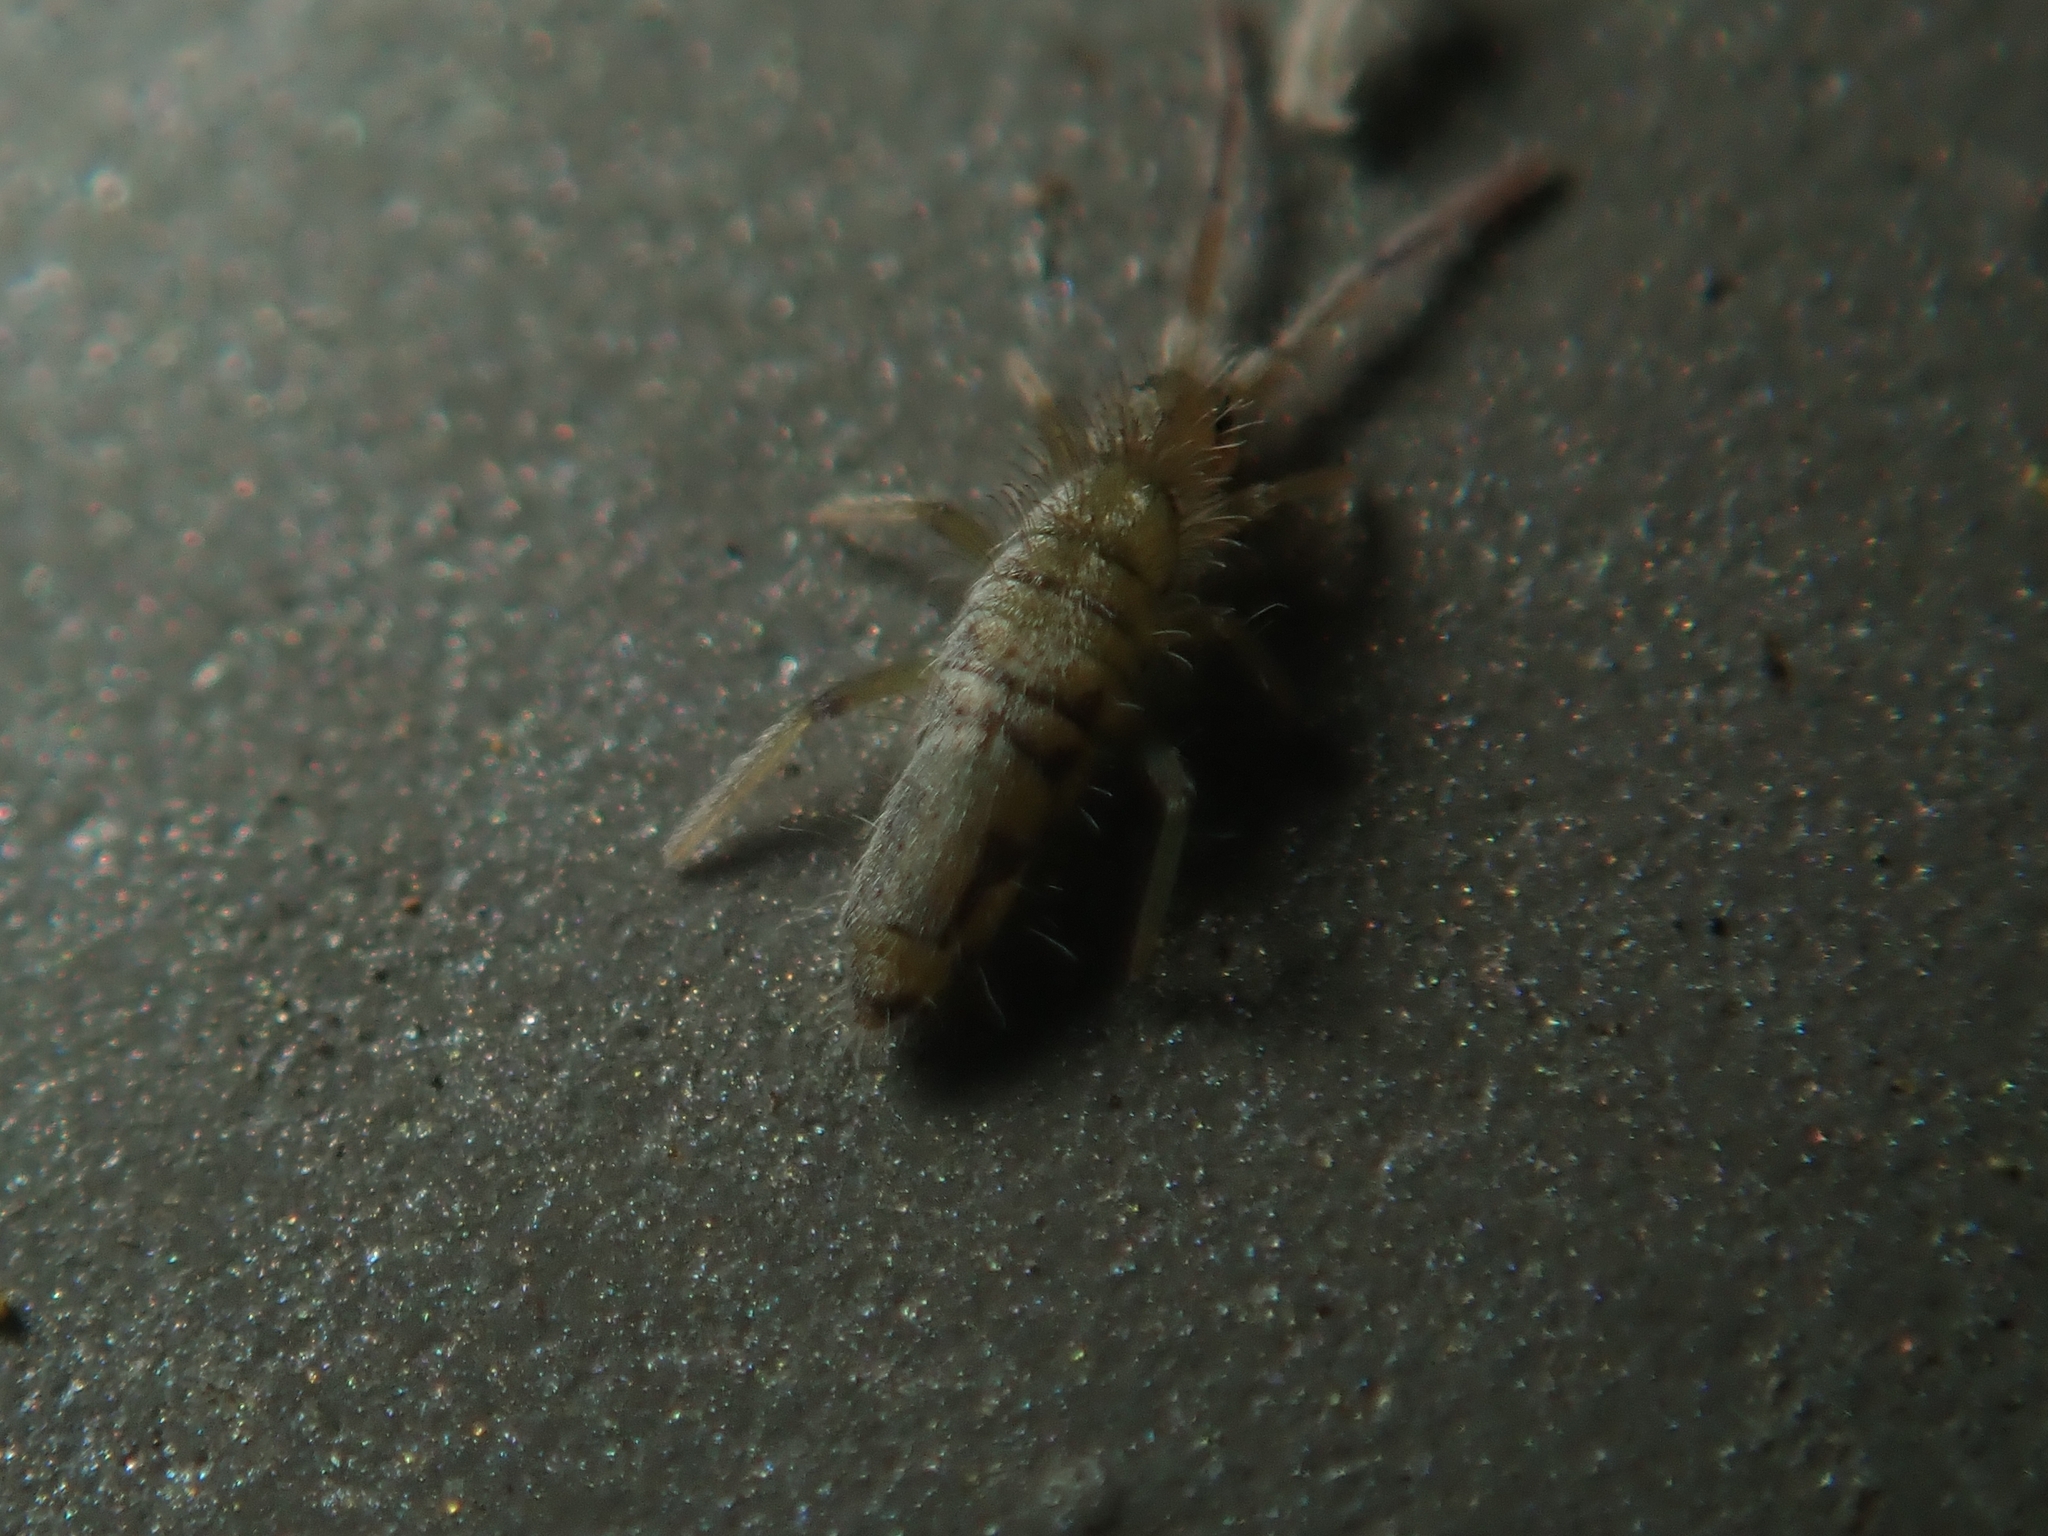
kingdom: Animalia
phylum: Arthropoda
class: Collembola
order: Entomobryomorpha
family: Entomobryidae
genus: Entomobrya
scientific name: Entomobrya nivalis
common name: Cosmopolitan springtail
